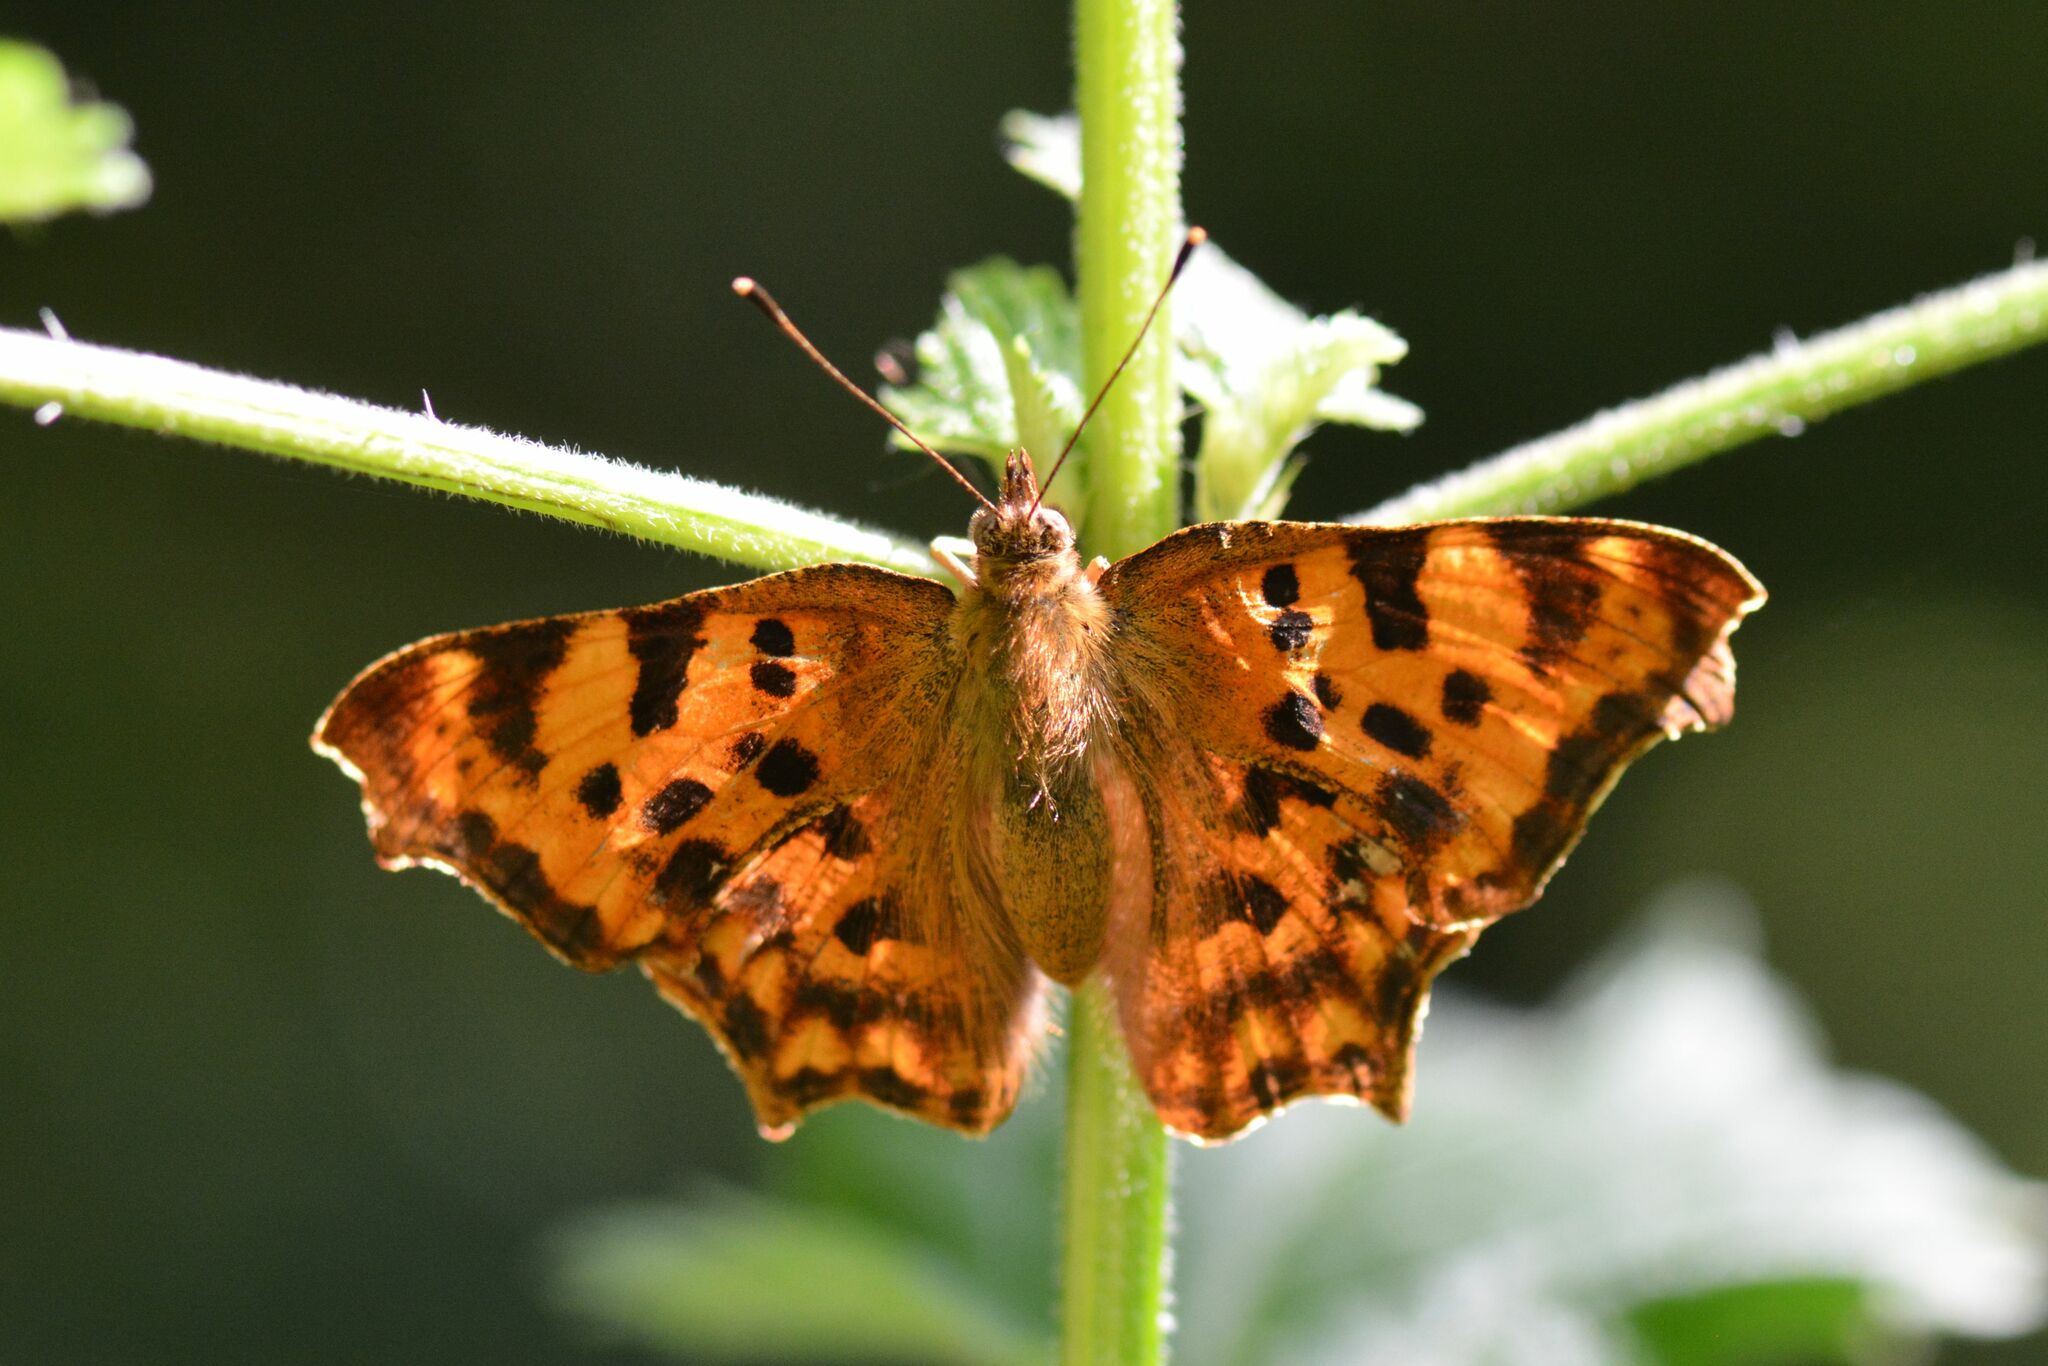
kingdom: Animalia
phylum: Arthropoda
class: Insecta
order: Lepidoptera
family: Nymphalidae
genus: Polygonia
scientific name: Polygonia c-album
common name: Comma
